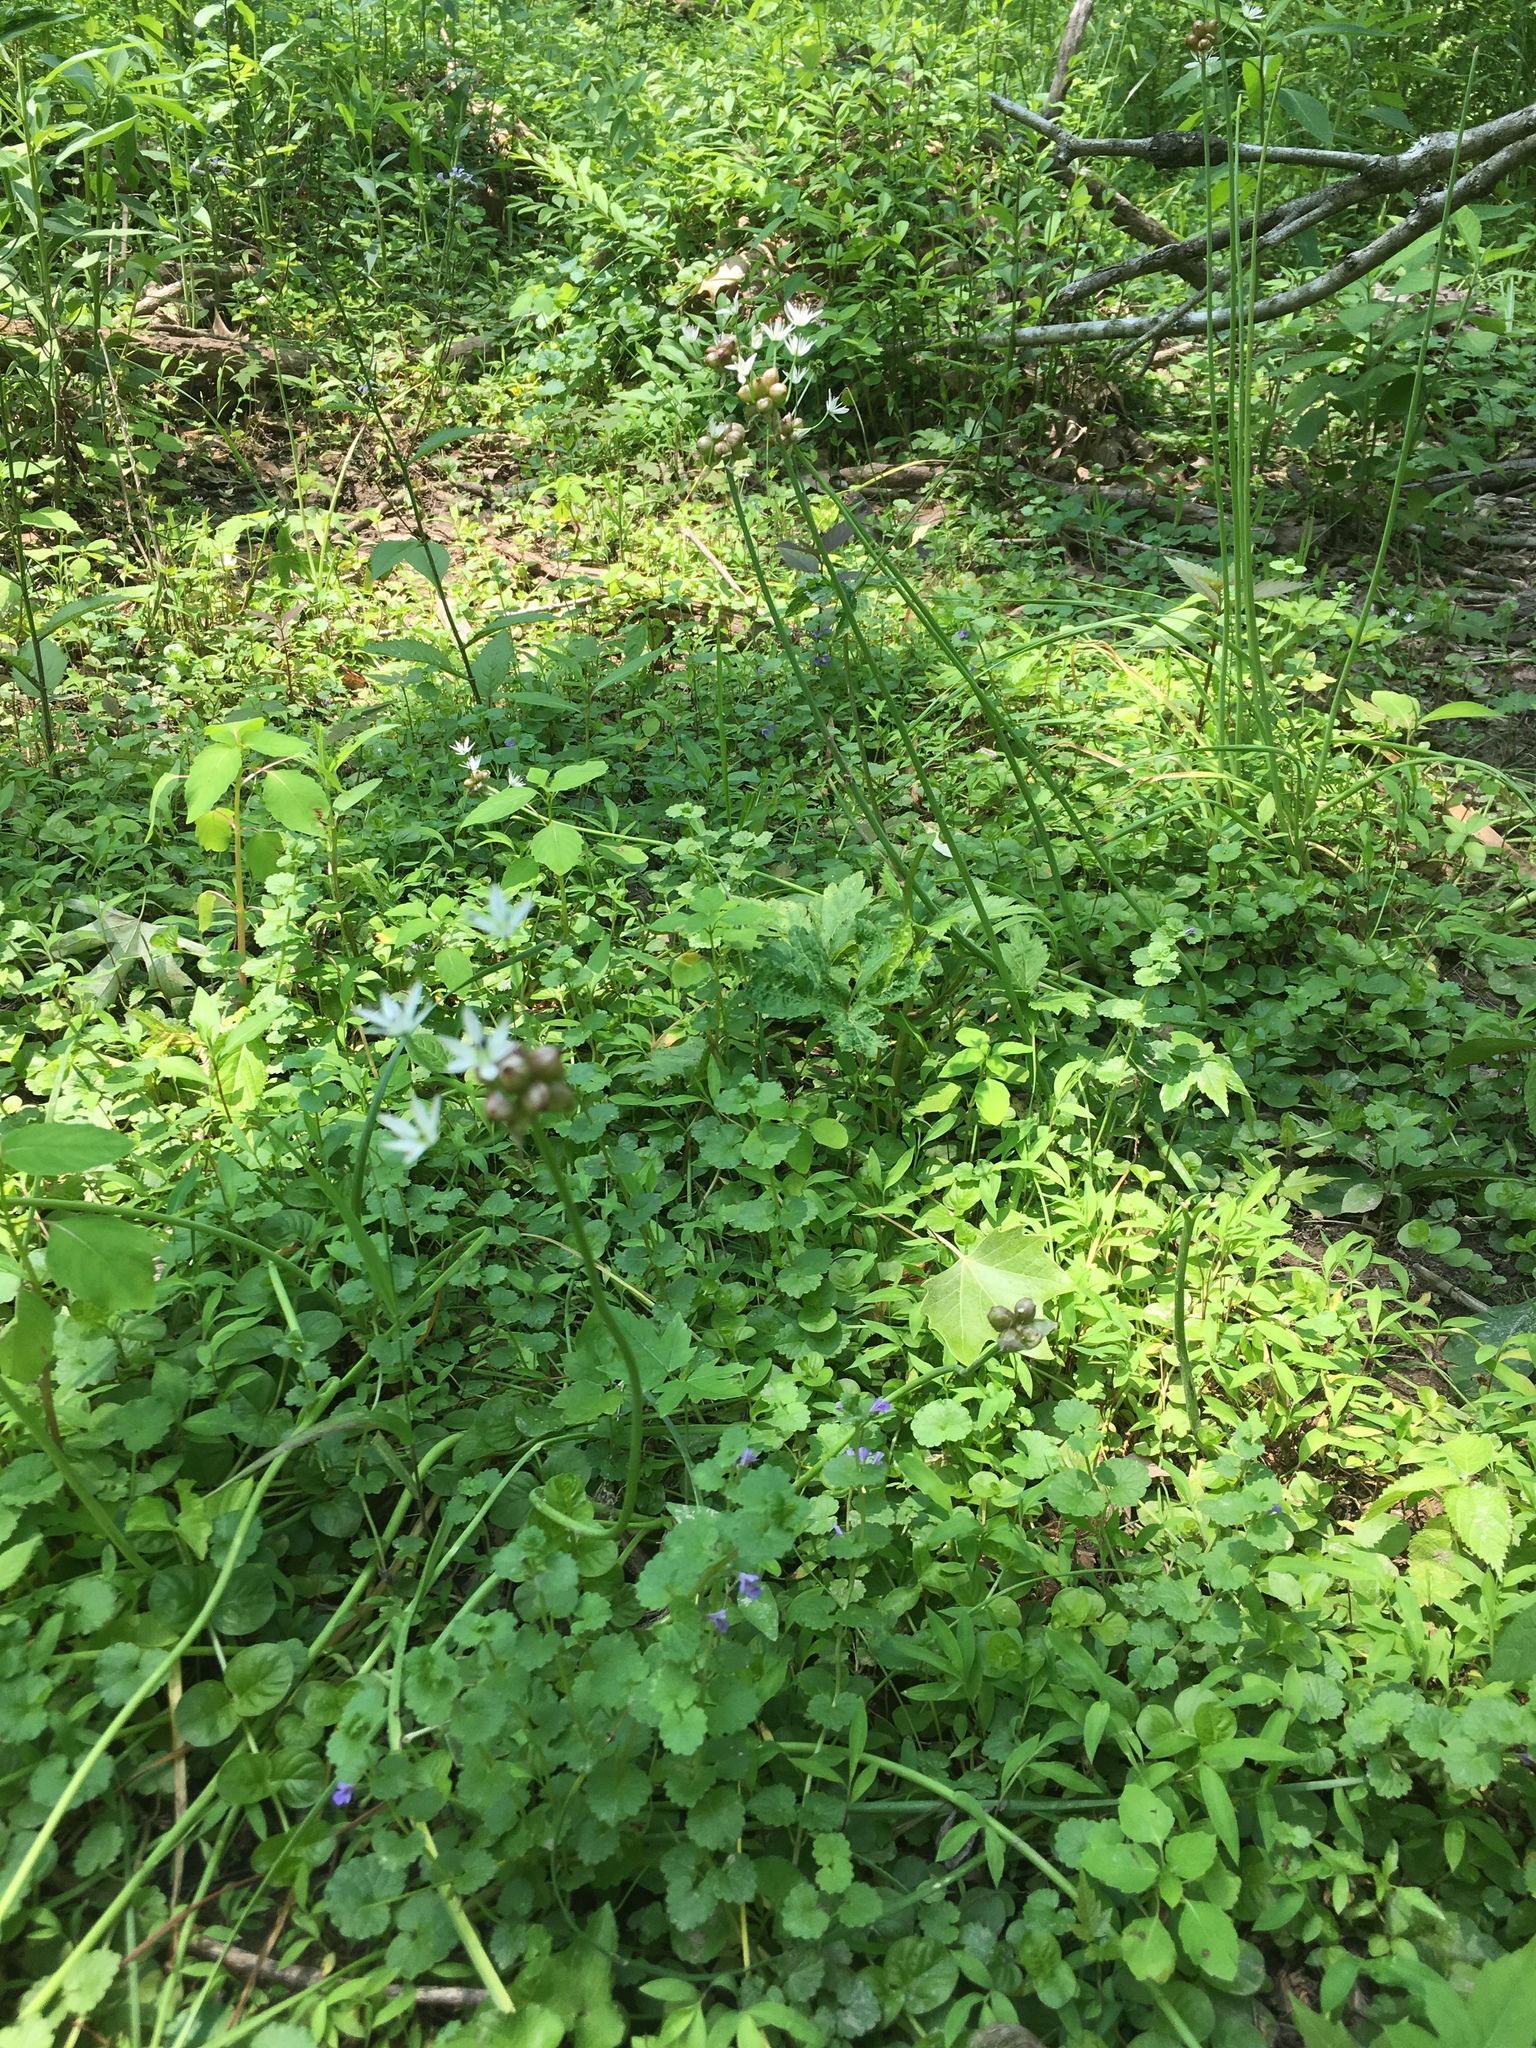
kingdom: Plantae
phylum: Tracheophyta
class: Liliopsida
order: Asparagales
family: Amaryllidaceae
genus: Allium
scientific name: Allium canadense
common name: Meadow garlic
